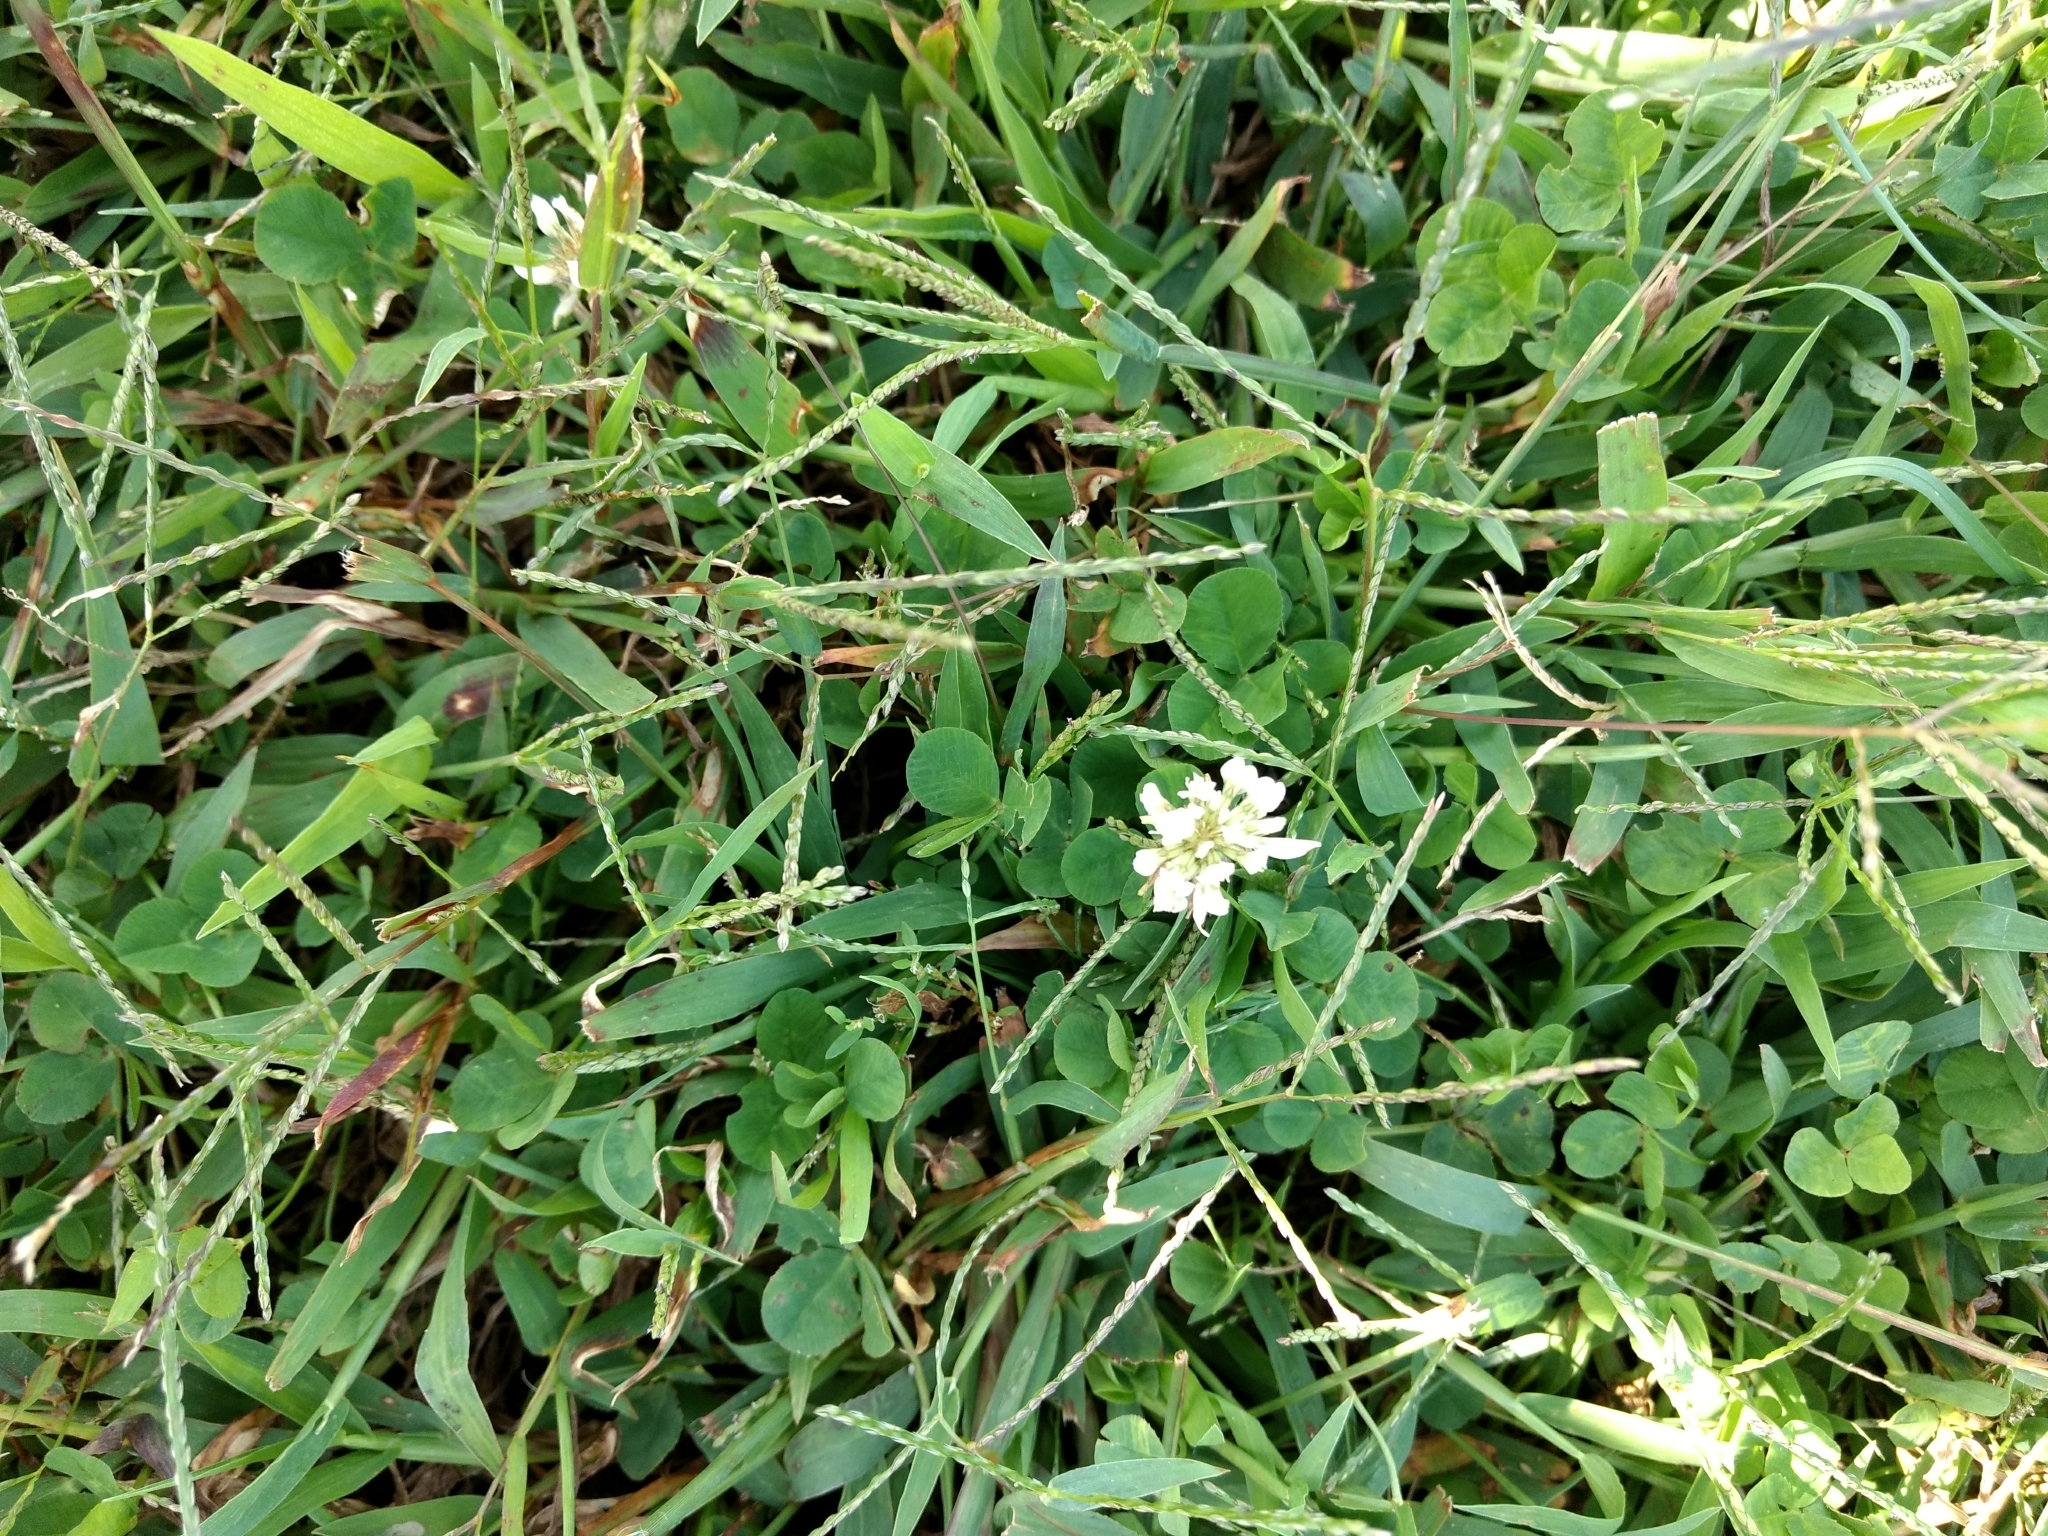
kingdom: Plantae
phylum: Tracheophyta
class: Magnoliopsida
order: Fabales
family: Fabaceae
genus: Trifolium
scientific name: Trifolium repens
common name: White clover
